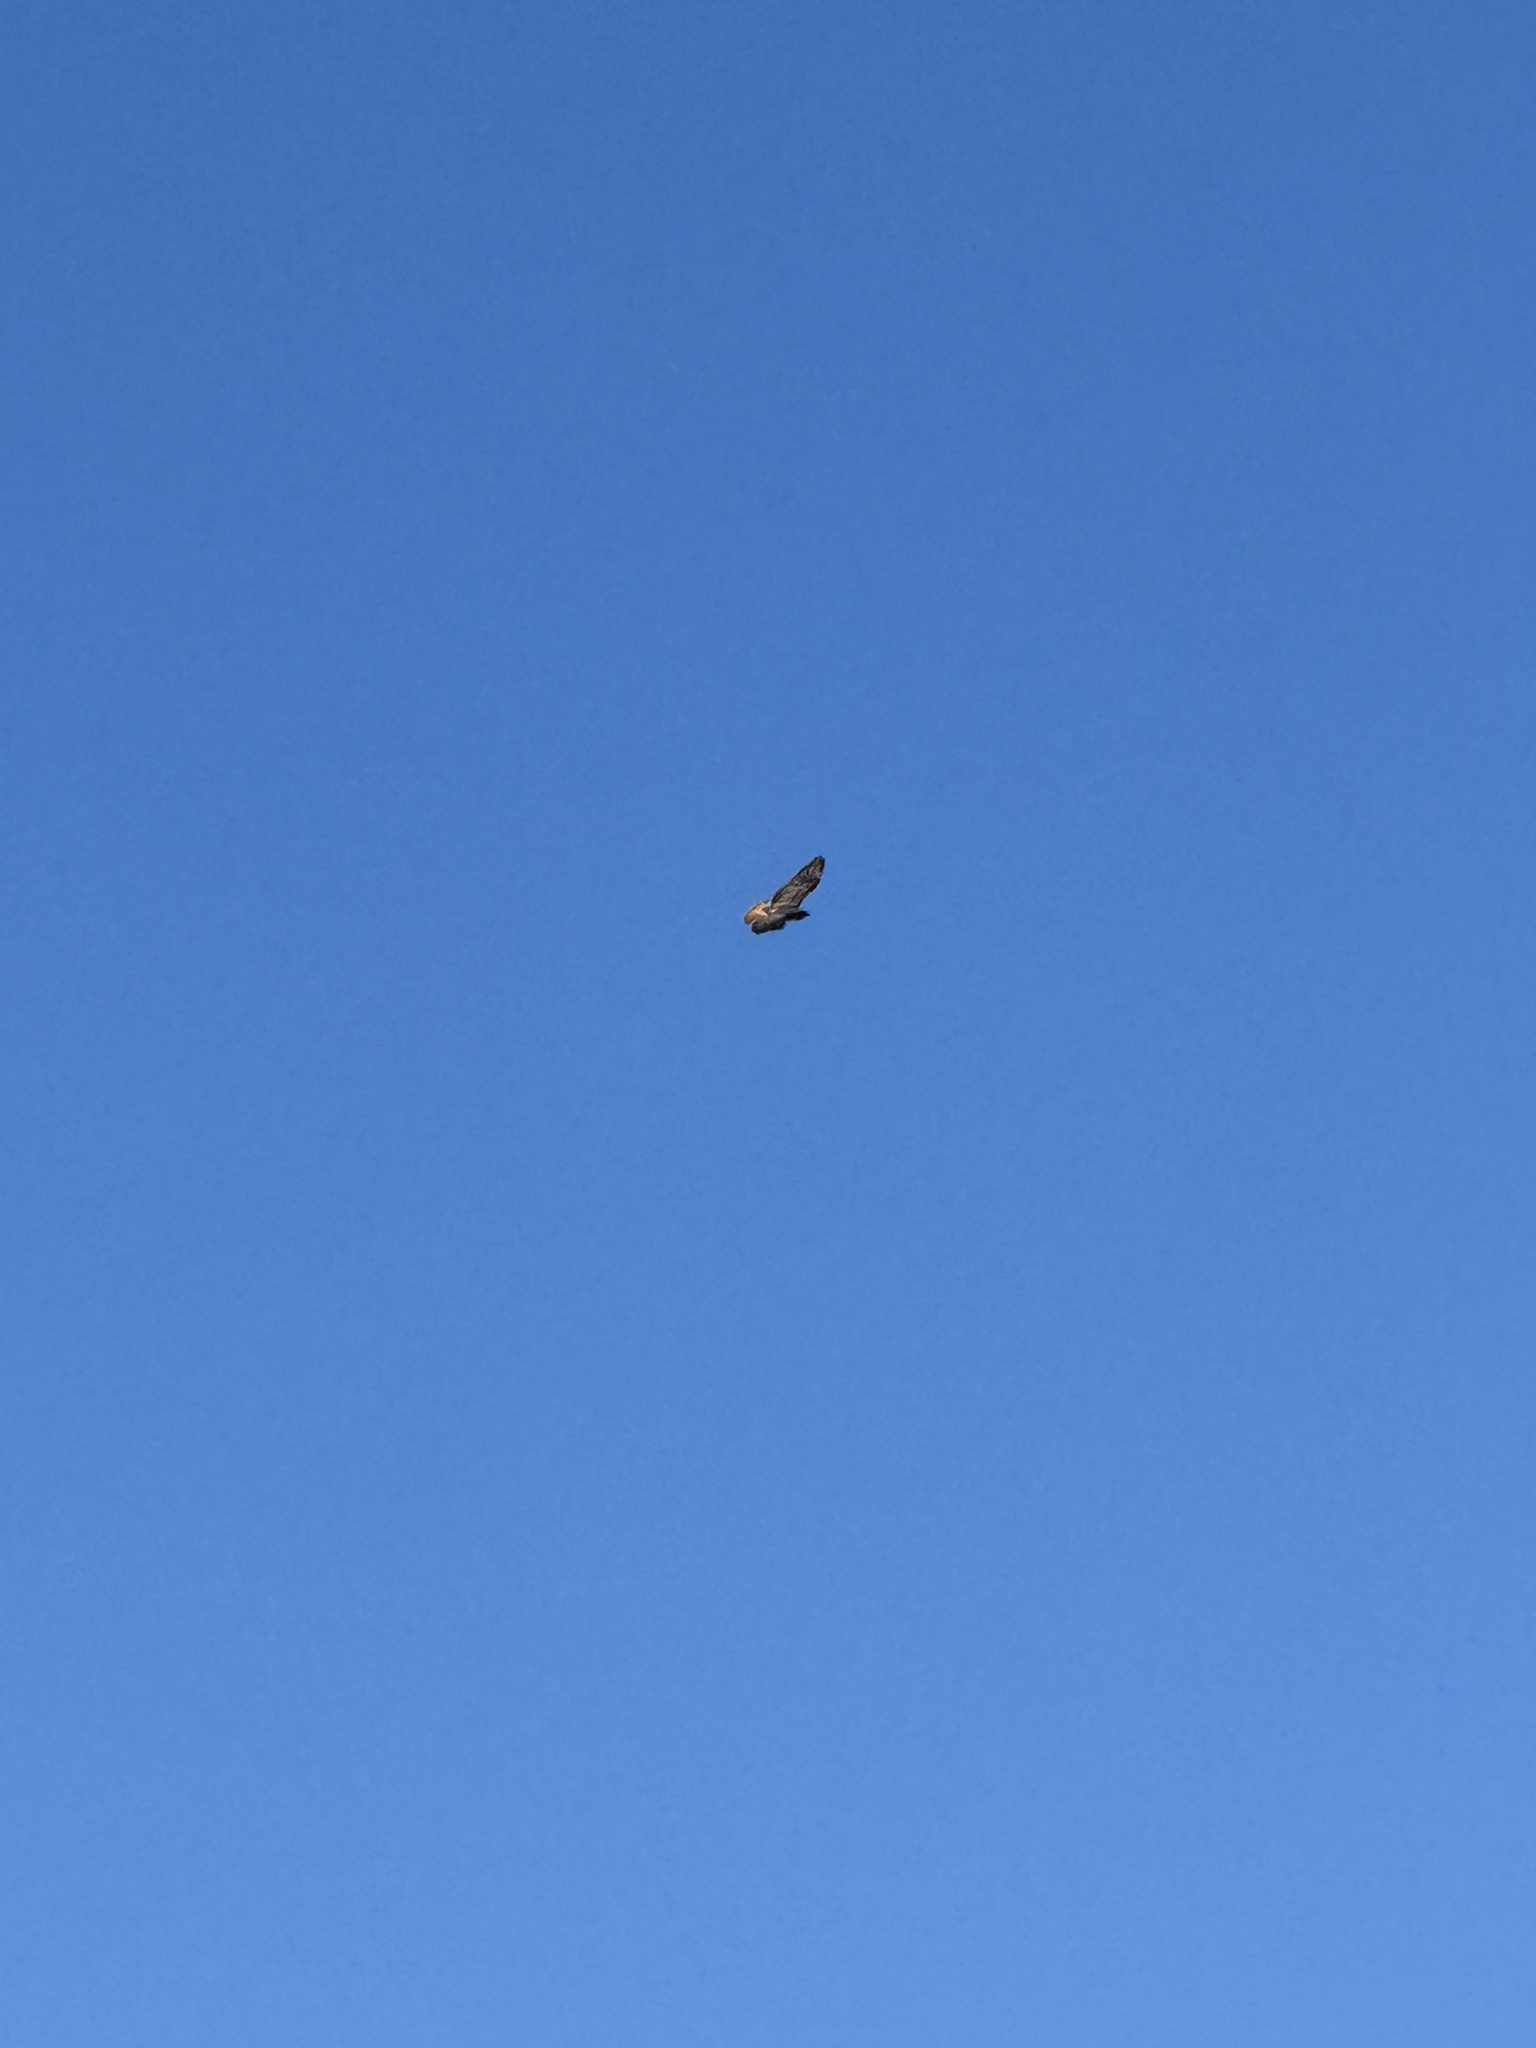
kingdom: Animalia
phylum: Chordata
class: Aves
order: Accipitriformes
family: Accipitridae
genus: Buteo
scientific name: Buteo jamaicensis
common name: Red-tailed hawk
